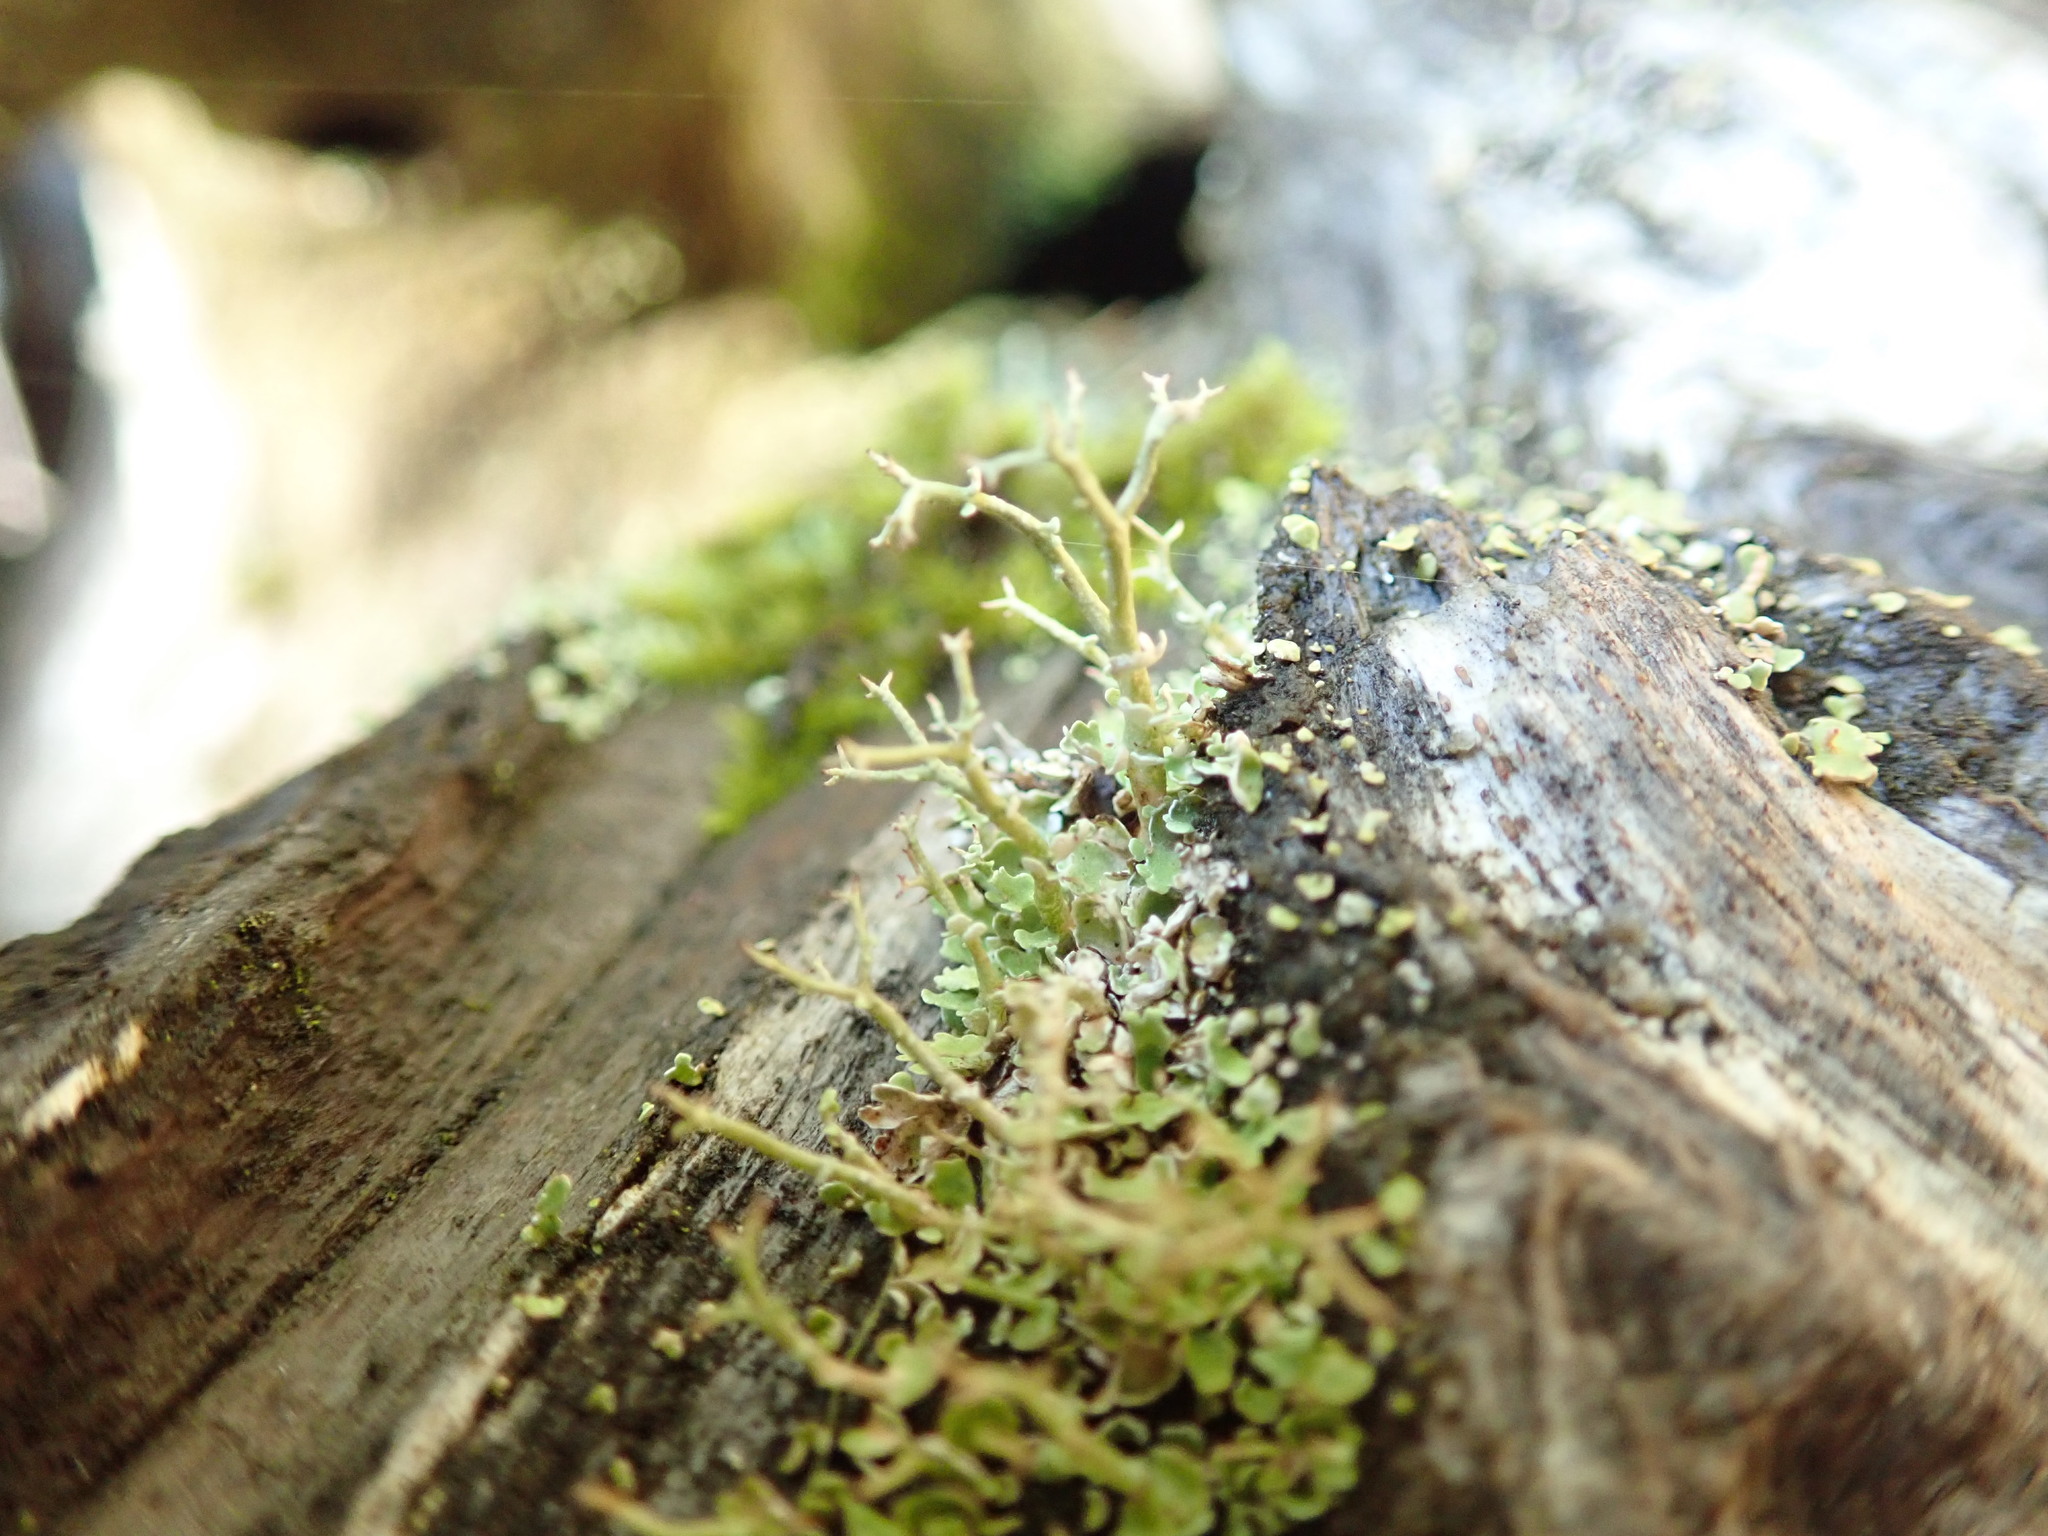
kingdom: Fungi
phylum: Ascomycota
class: Lecanoromycetes
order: Lecanorales
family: Cladoniaceae
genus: Cladonia
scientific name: Cladonia furcata
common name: Many-forked cladonia
